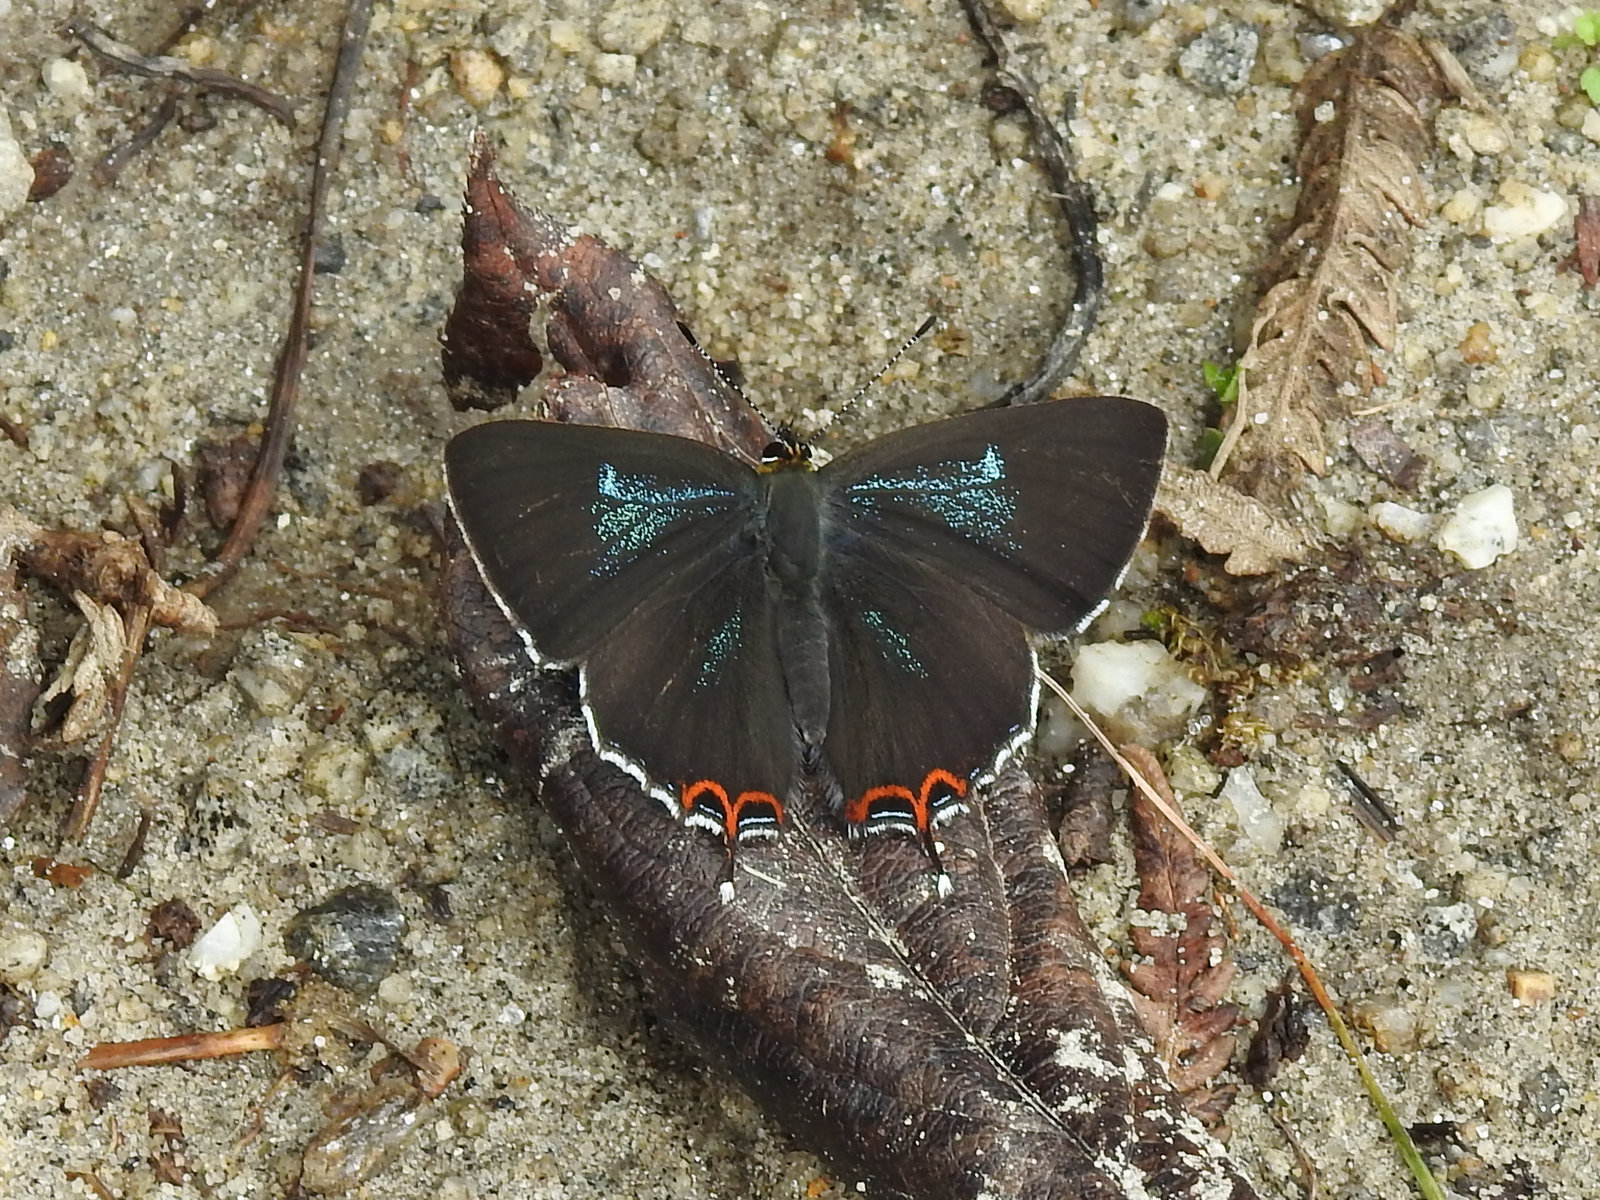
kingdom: Animalia
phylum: Arthropoda
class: Insecta
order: Lepidoptera
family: Lycaenidae
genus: Heliophorus
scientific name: Heliophorus tamu
